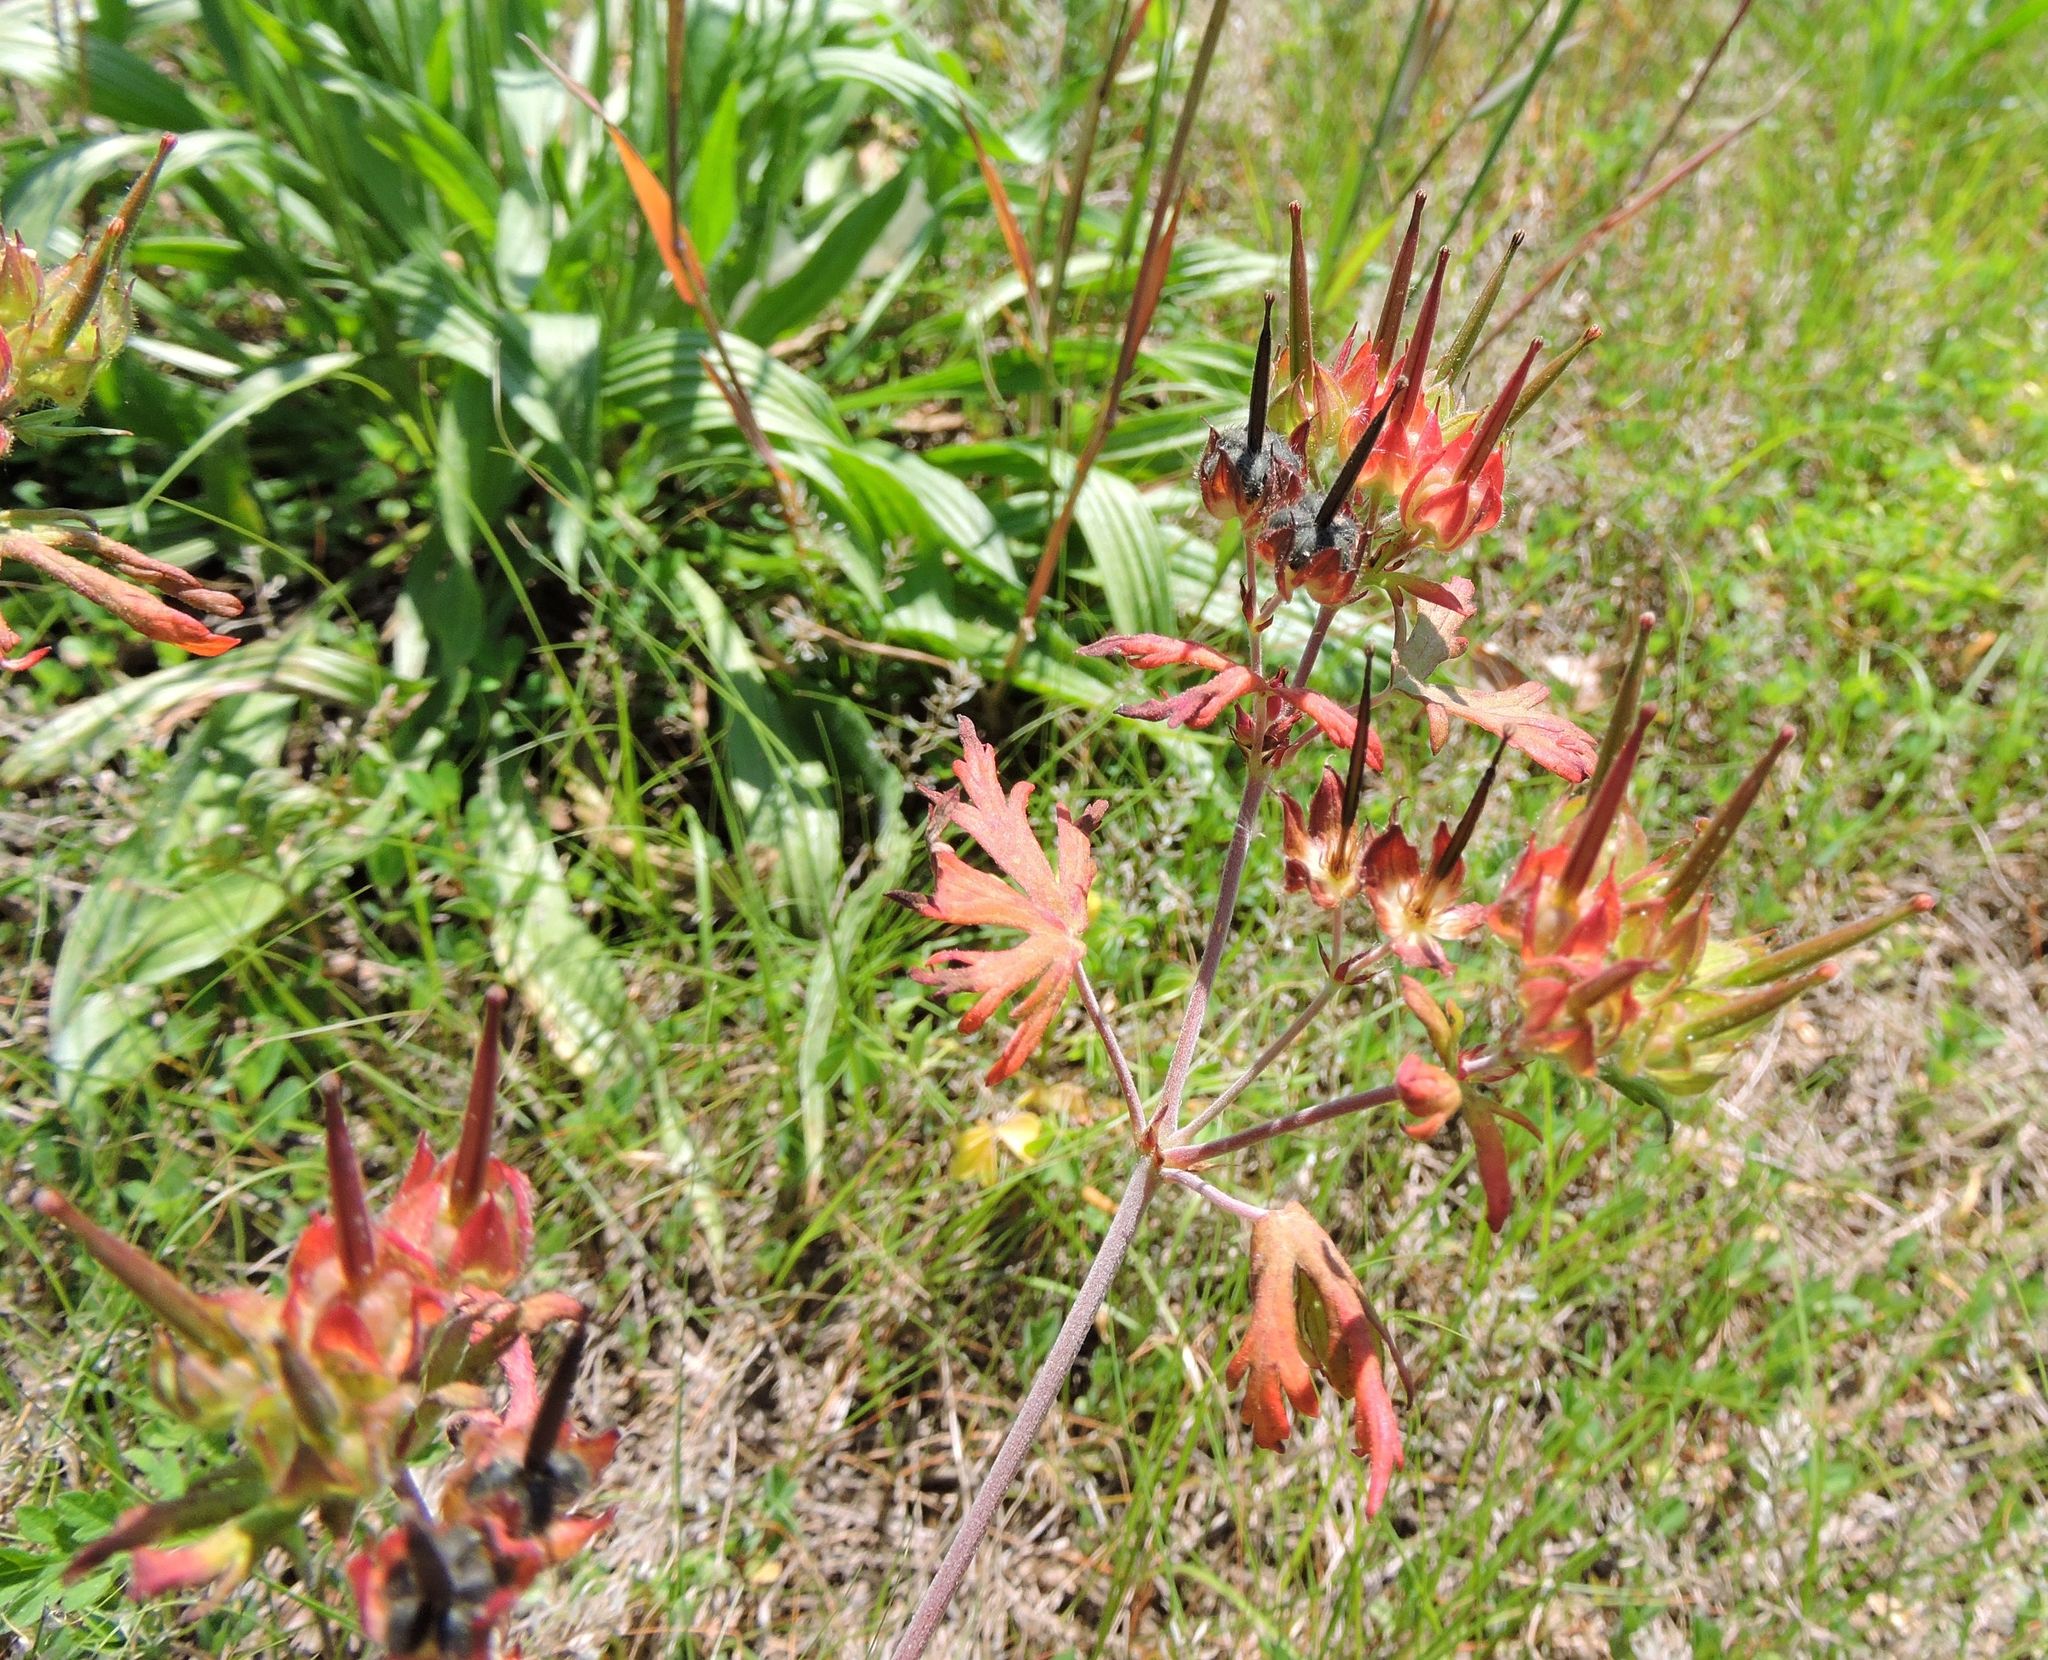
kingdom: Plantae
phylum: Tracheophyta
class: Magnoliopsida
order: Geraniales
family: Geraniaceae
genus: Geranium
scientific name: Geranium carolinianum
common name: Carolina crane's-bill
